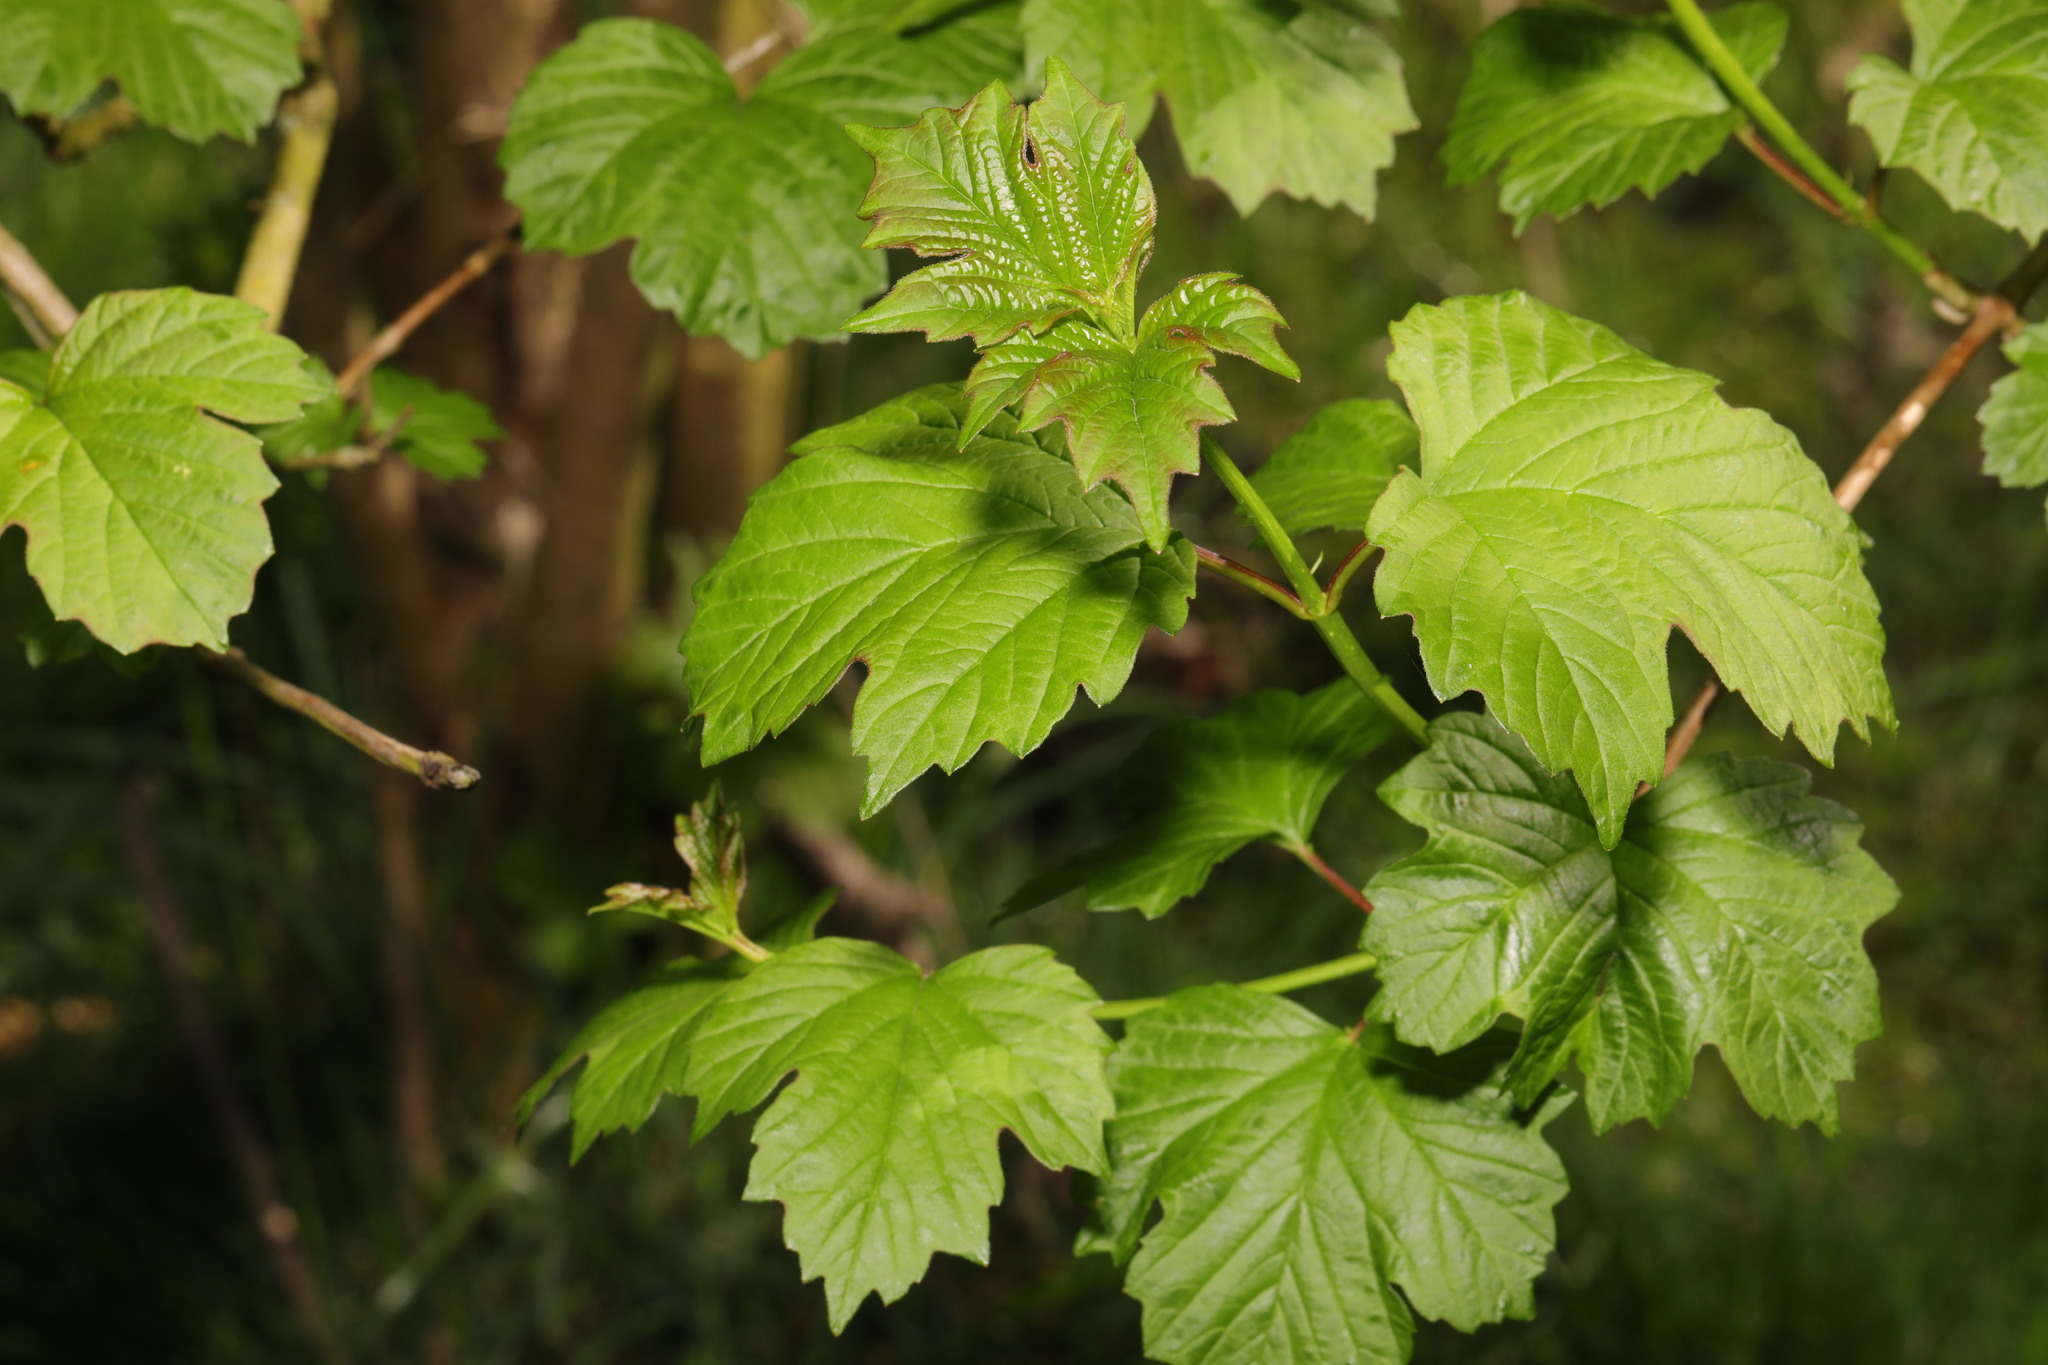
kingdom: Plantae
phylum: Tracheophyta
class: Magnoliopsida
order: Dipsacales
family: Viburnaceae
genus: Viburnum
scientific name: Viburnum opulus
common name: Guelder-rose
